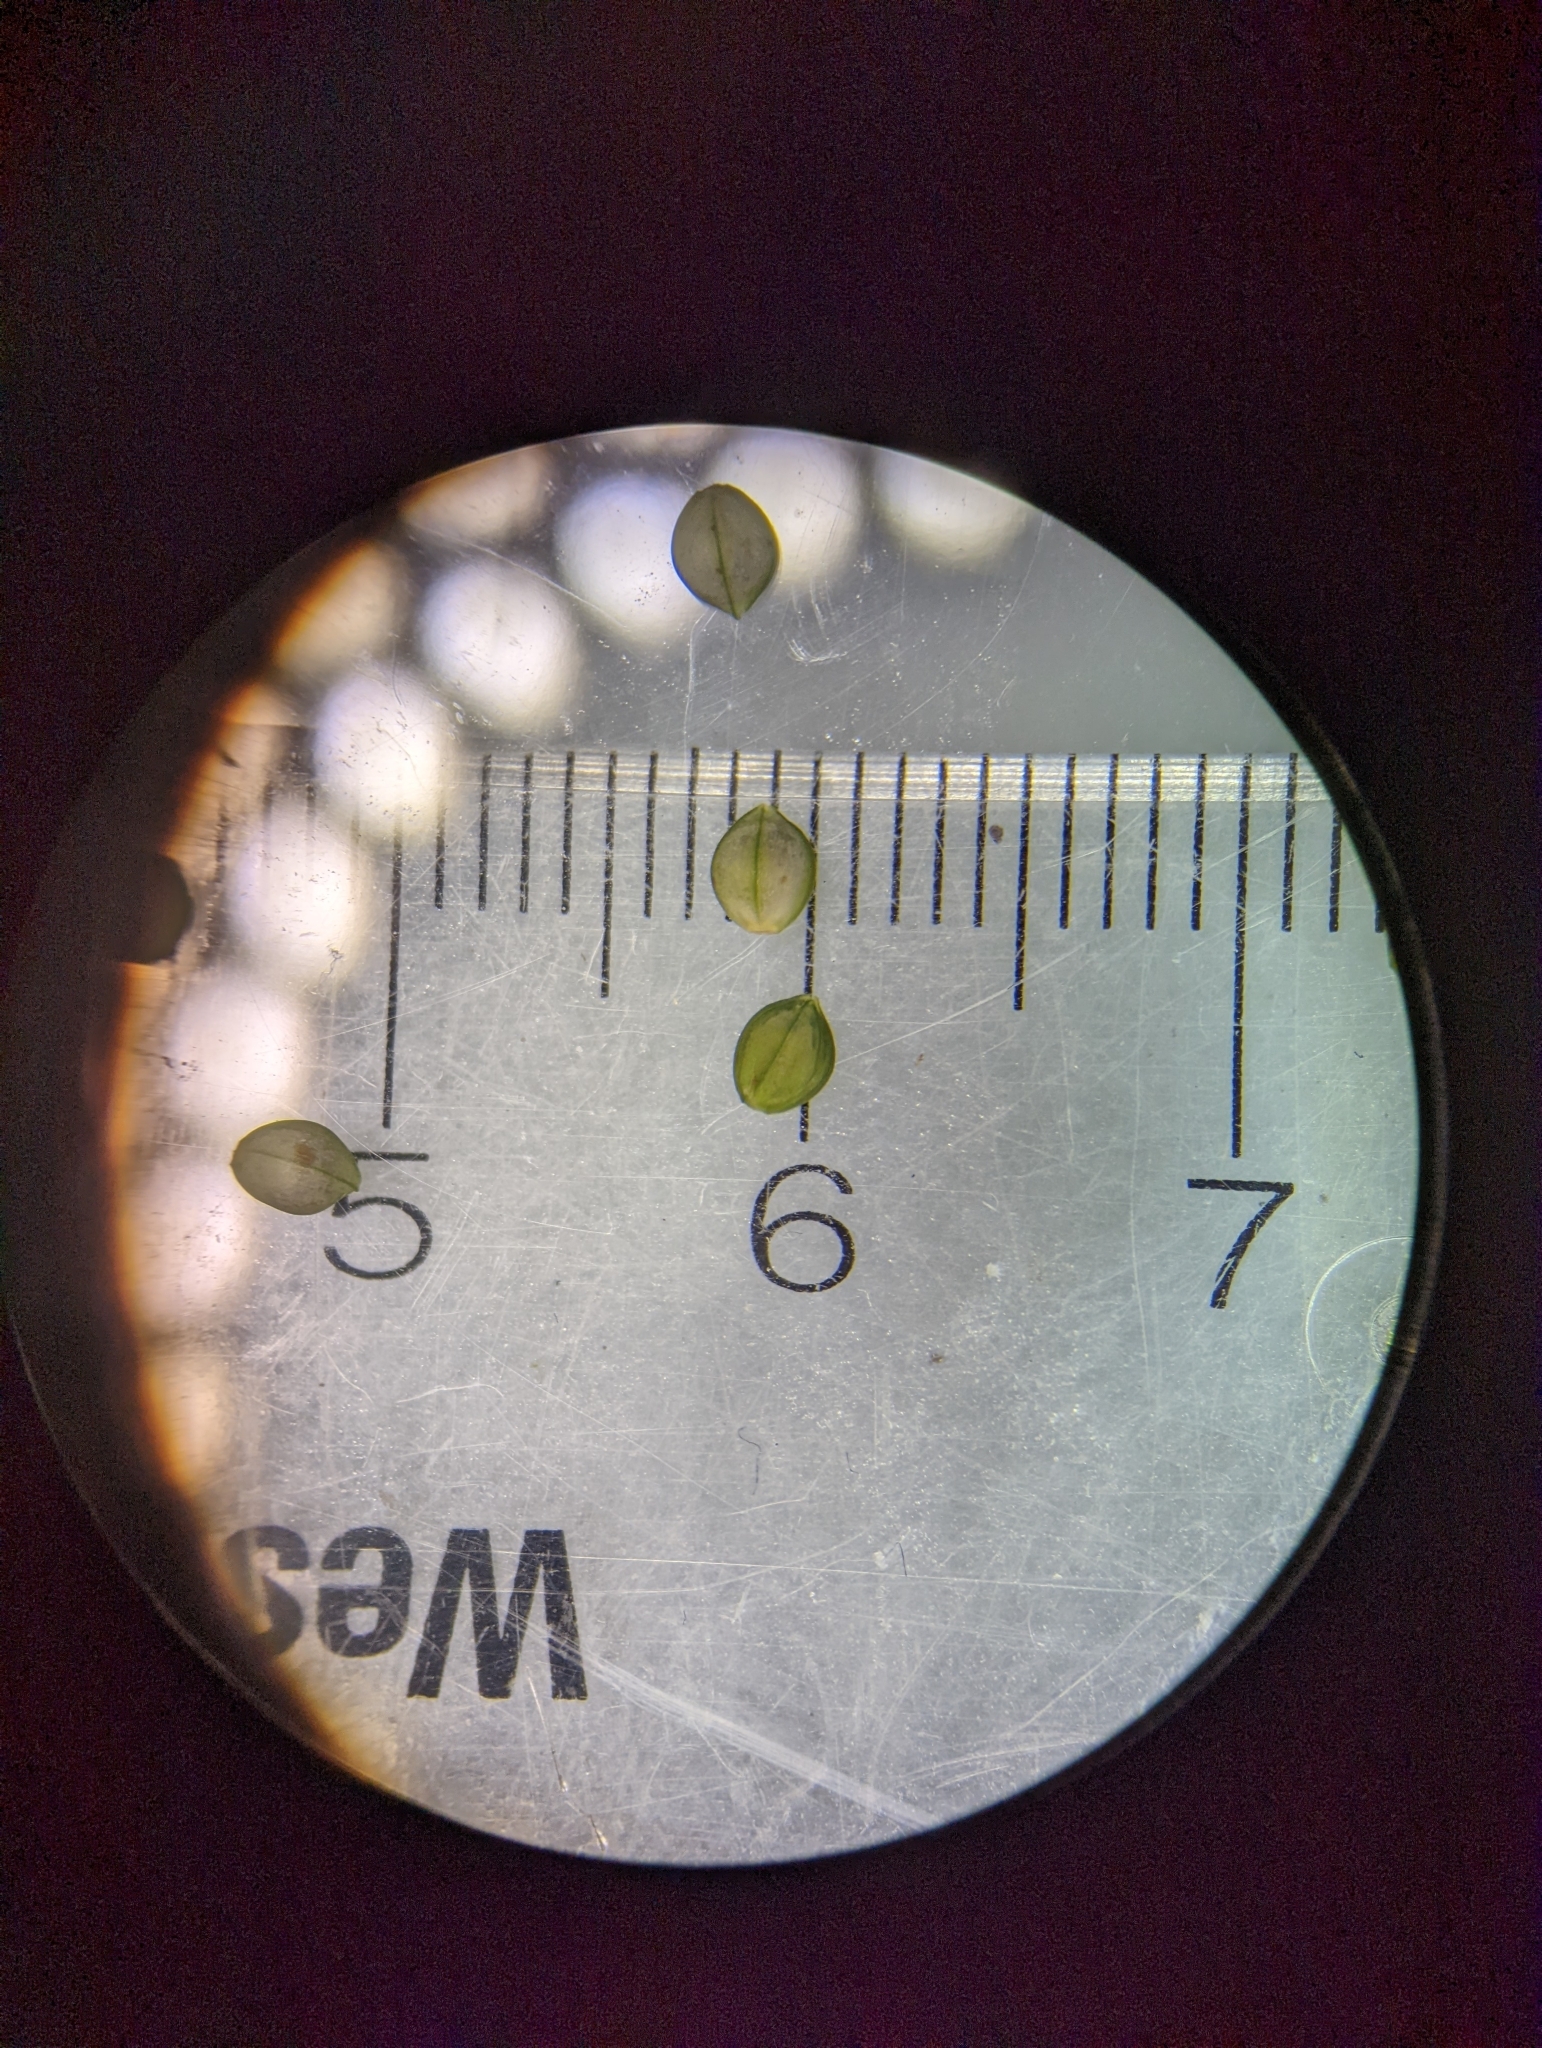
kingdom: Plantae
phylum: Tracheophyta
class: Liliopsida
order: Poales
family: Poaceae
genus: Paspalum
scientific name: Paspalum laeve
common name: Field paspalum
